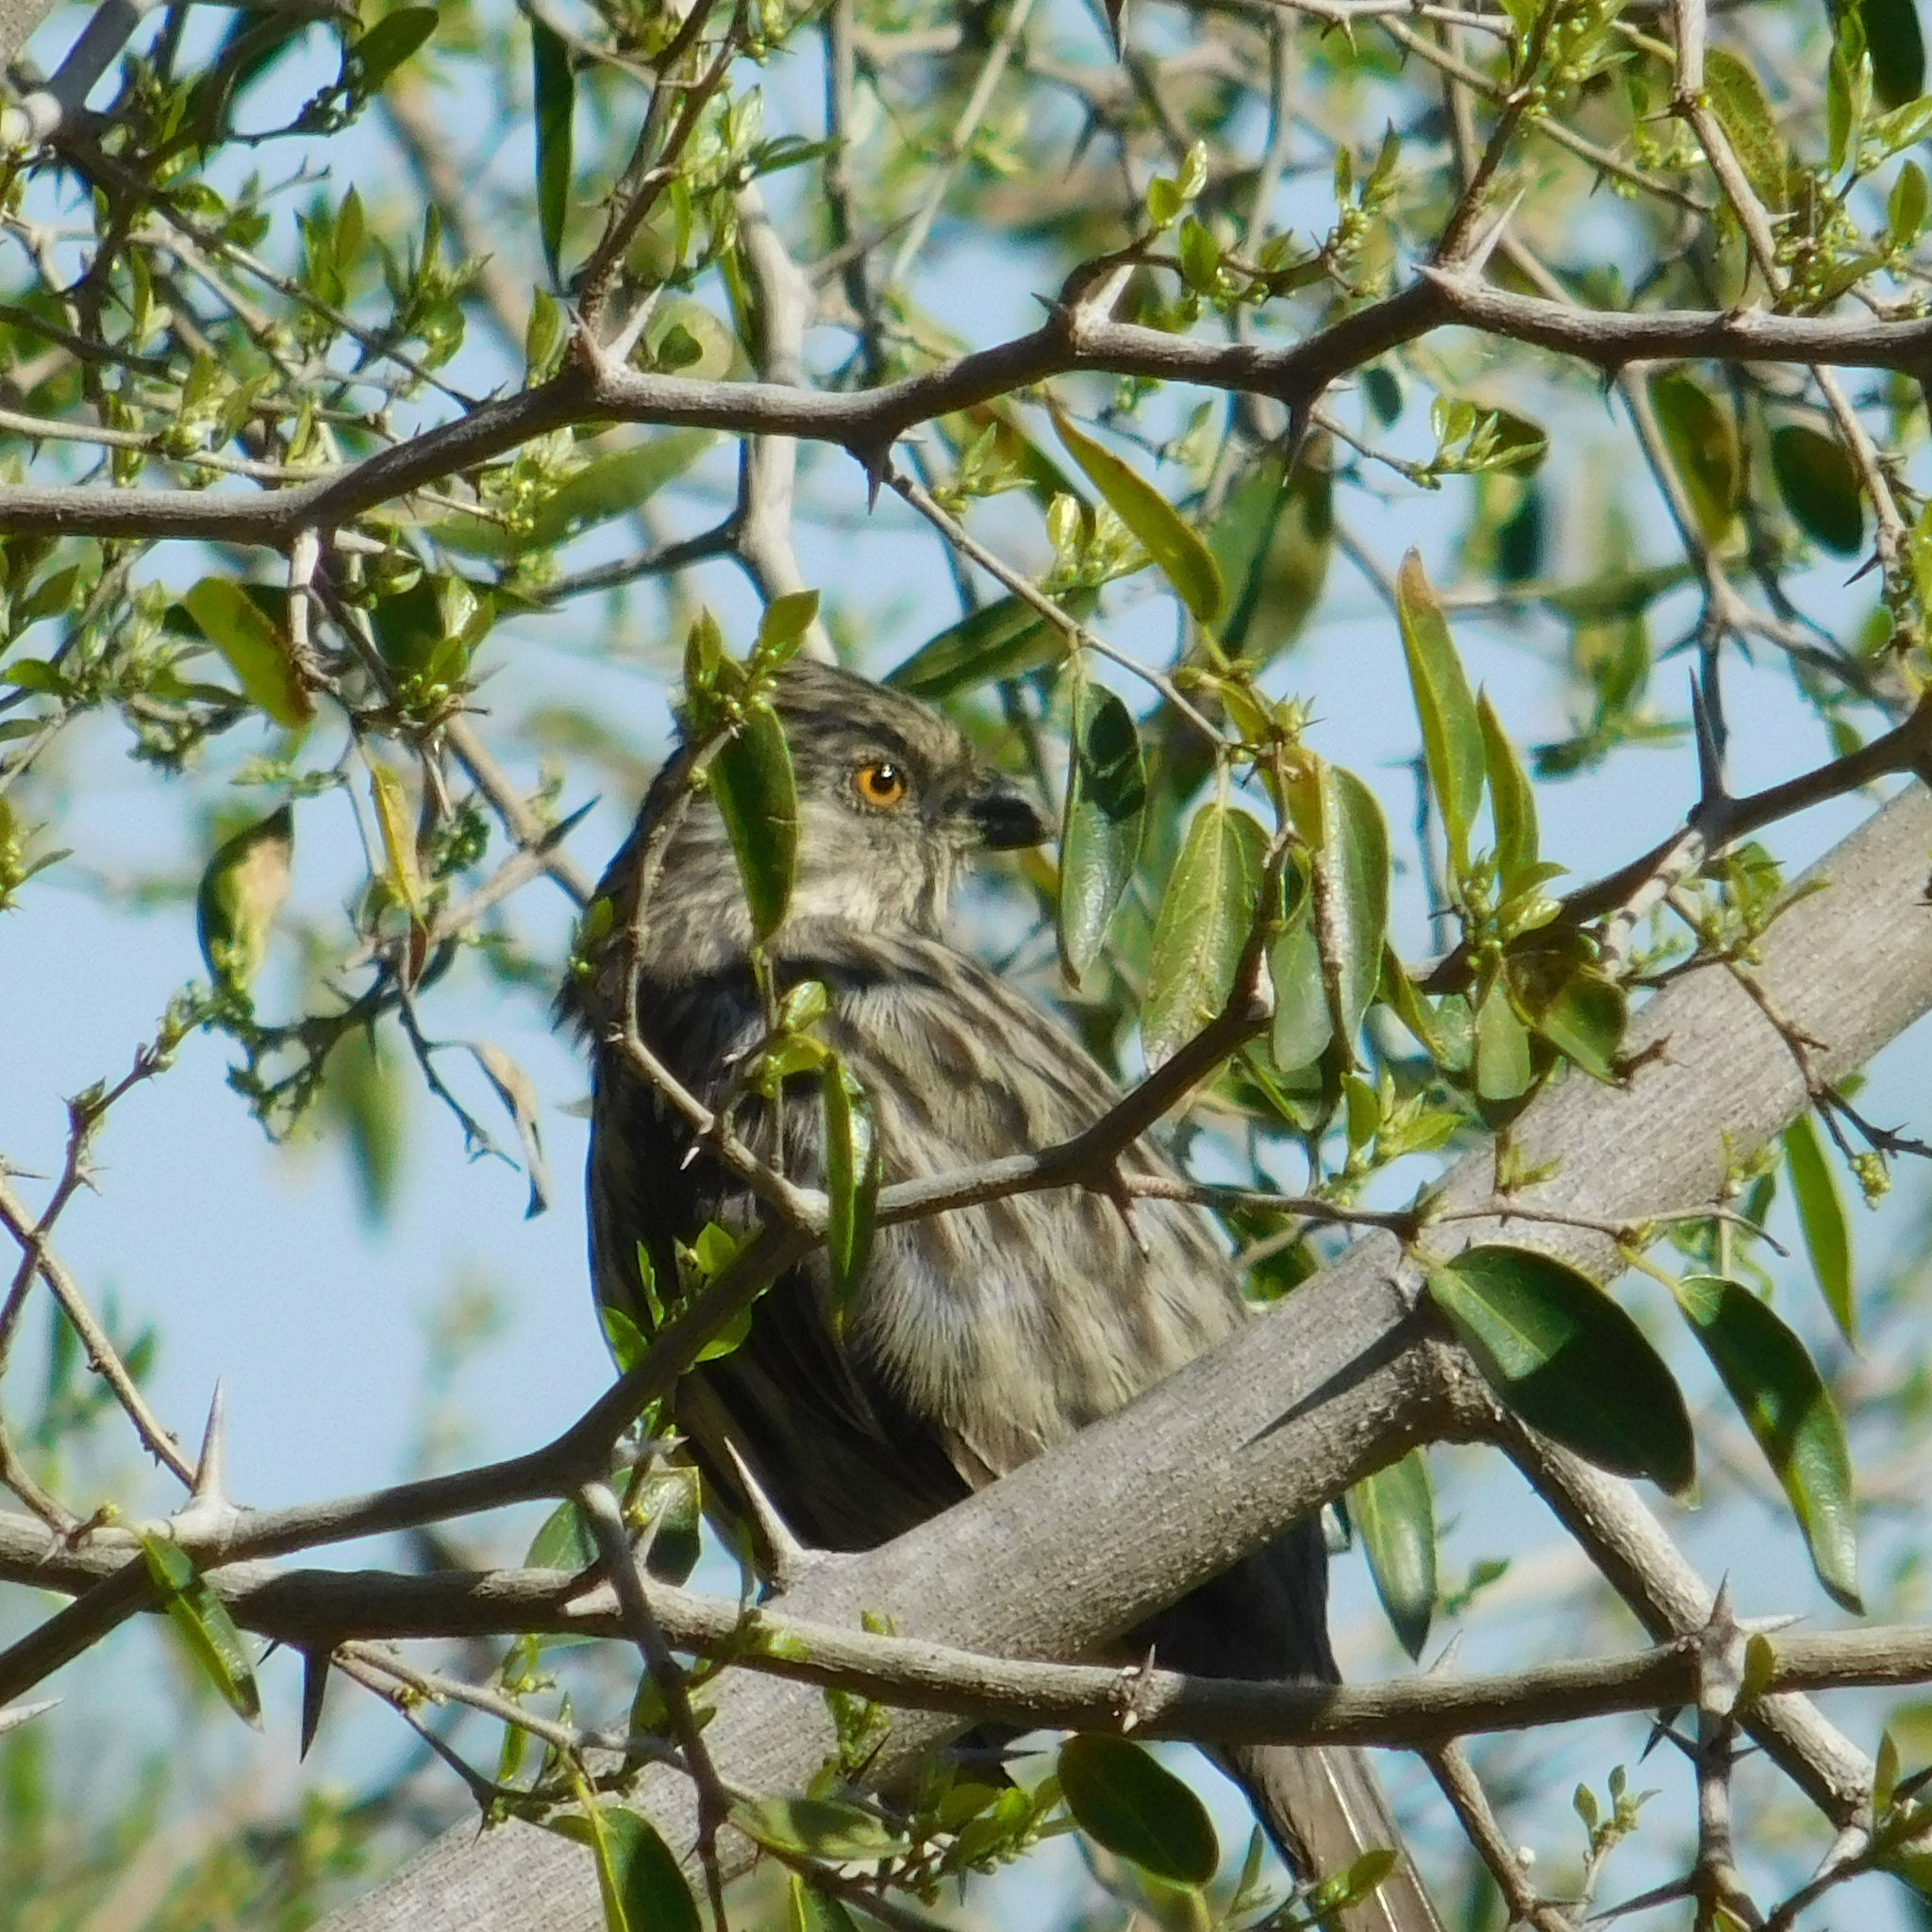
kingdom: Animalia
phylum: Chordata
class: Aves
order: Passeriformes
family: Cotingidae
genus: Phytotoma
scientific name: Phytotoma rutila
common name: White-tipped plantcutter
